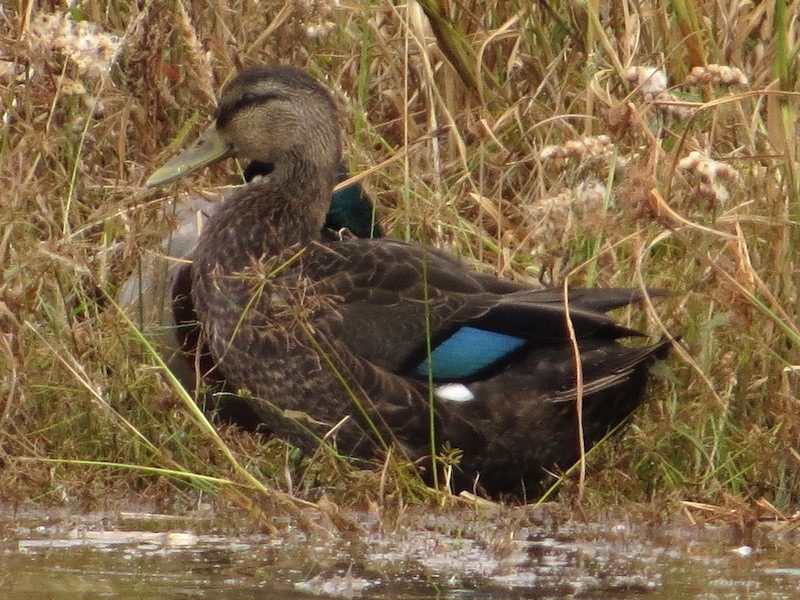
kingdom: Animalia
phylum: Chordata
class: Aves
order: Anseriformes
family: Anatidae
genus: Anas
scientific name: Anas rubripes
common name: American black duck
